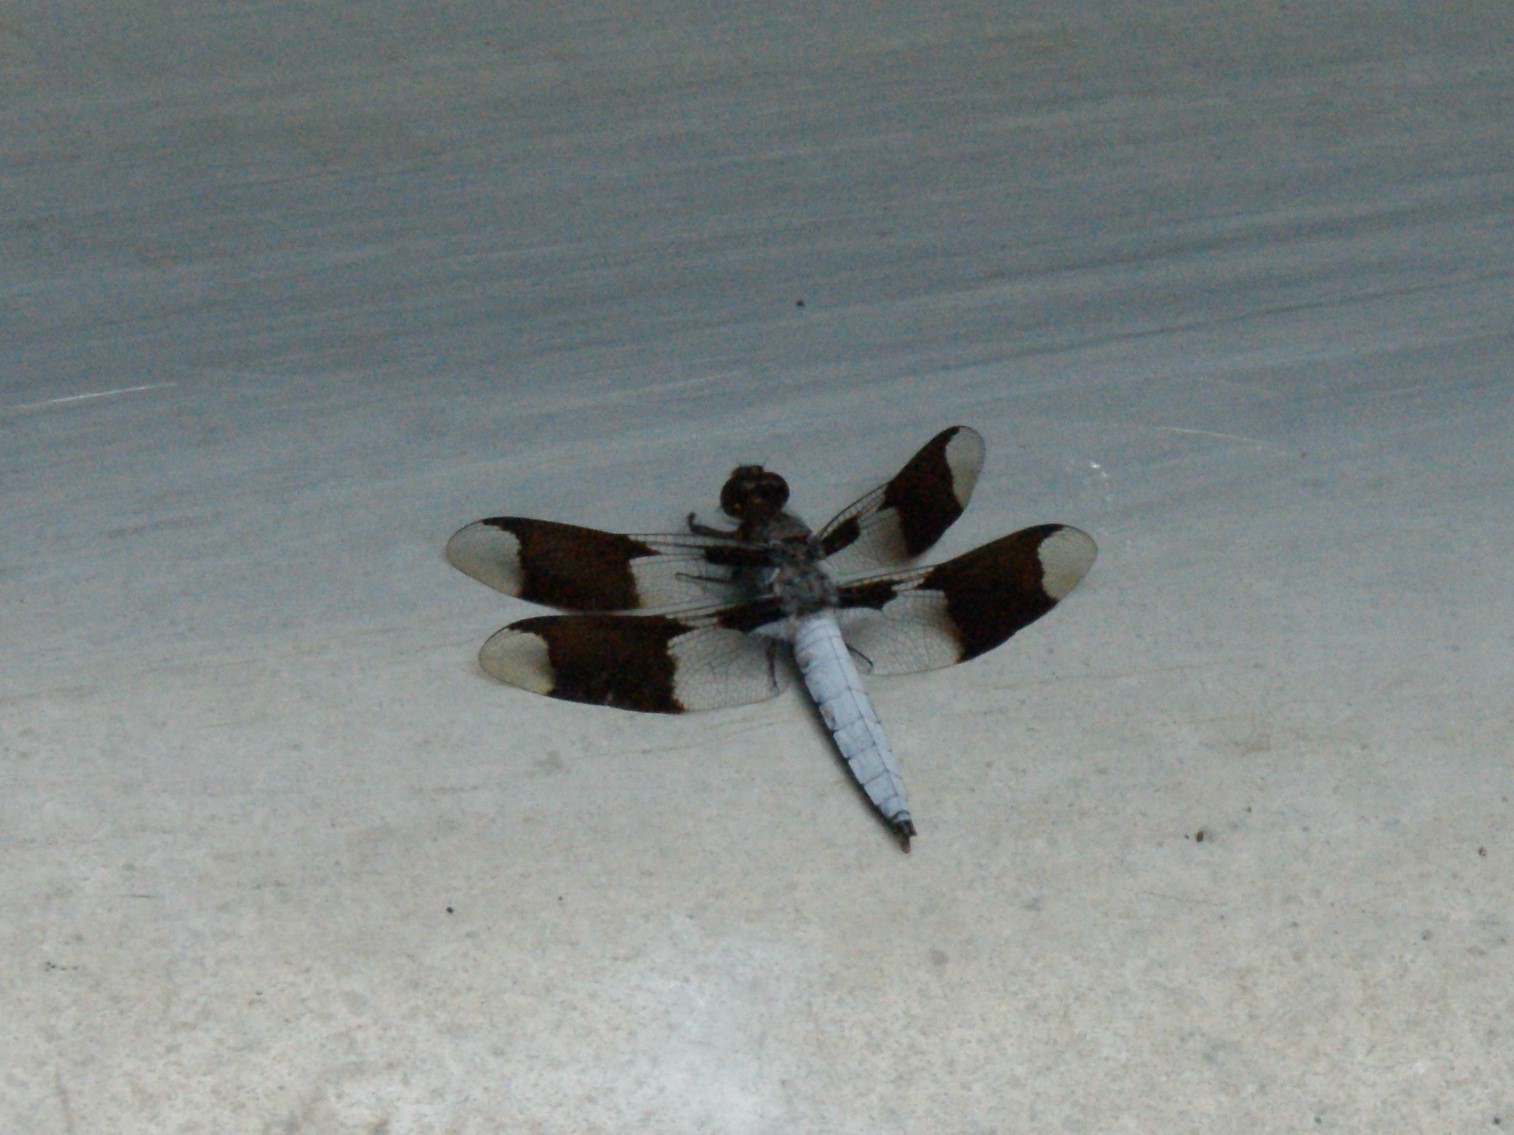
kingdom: Animalia
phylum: Arthropoda
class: Insecta
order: Odonata
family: Libellulidae
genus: Plathemis
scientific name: Plathemis lydia
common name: Common whitetail
